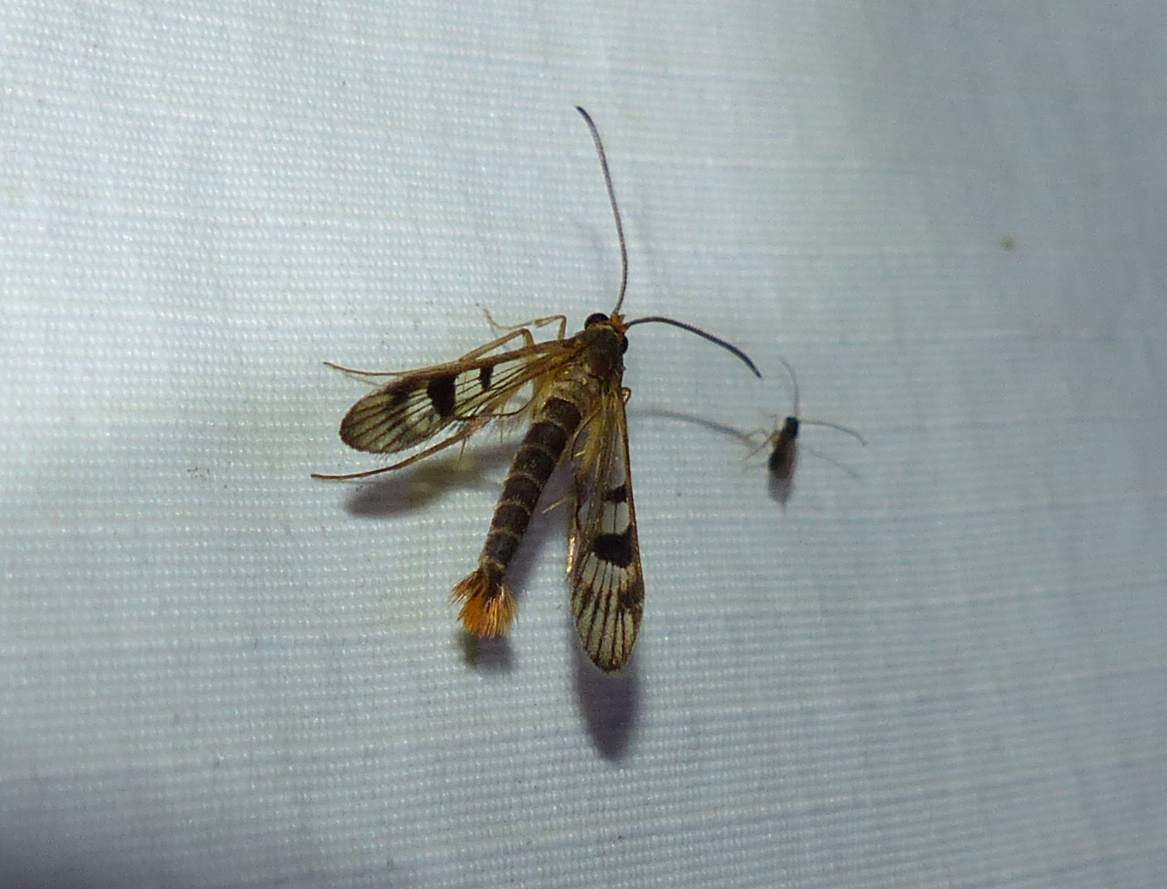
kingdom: Animalia
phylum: Arthropoda
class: Insecta
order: Lepidoptera
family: Sesiidae
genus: Synanthedon
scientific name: Synanthedon acerni
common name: Maple callus borer moth
